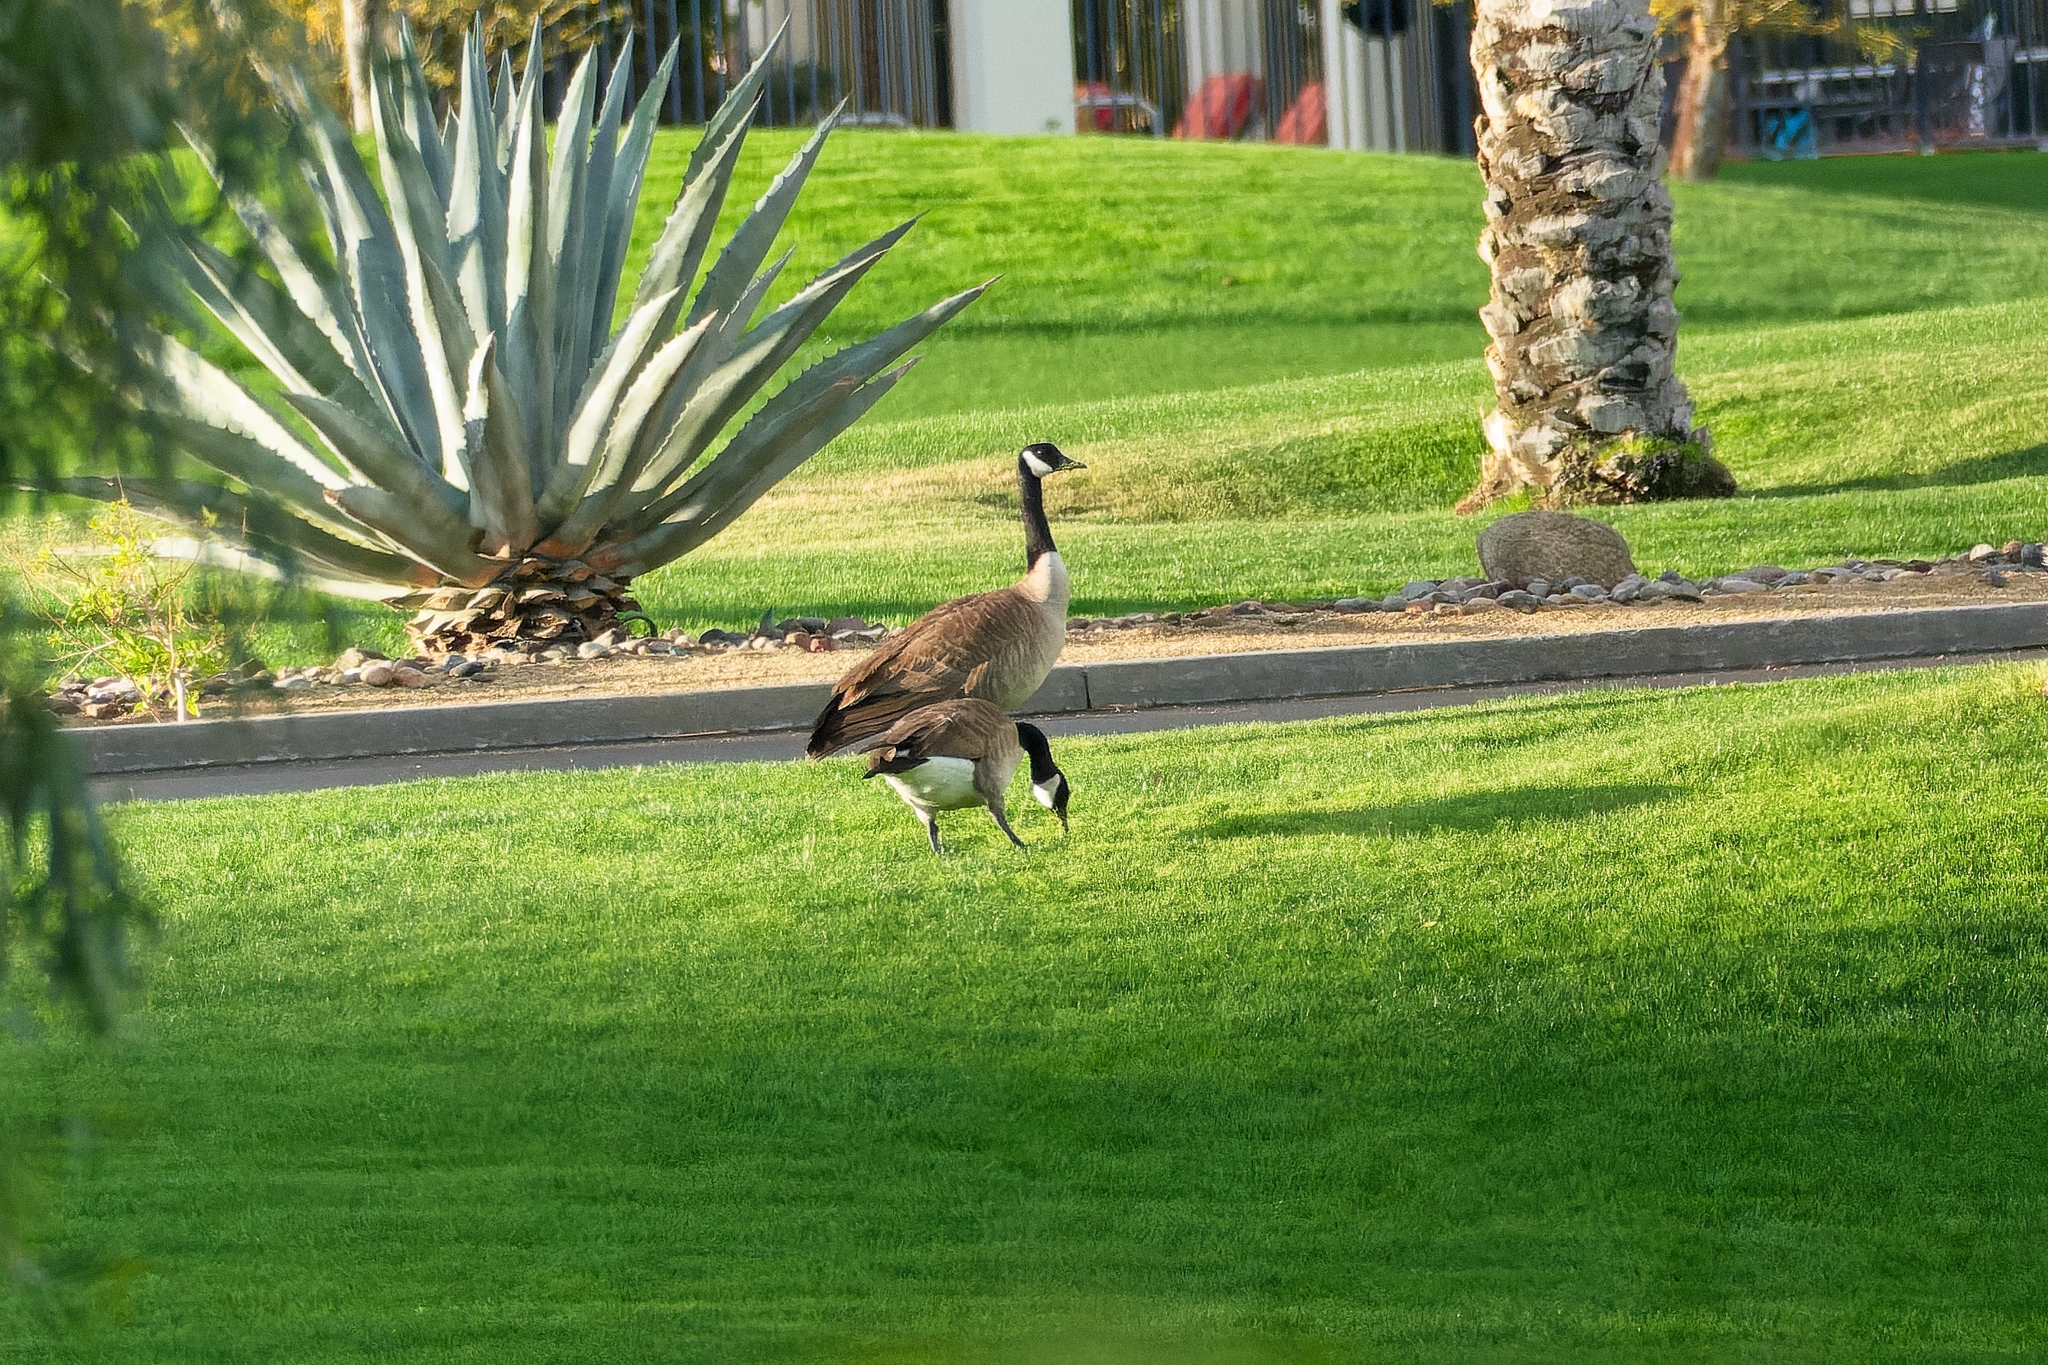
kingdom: Animalia
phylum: Chordata
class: Aves
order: Anseriformes
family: Anatidae
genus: Branta
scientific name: Branta canadensis
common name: Canada goose
